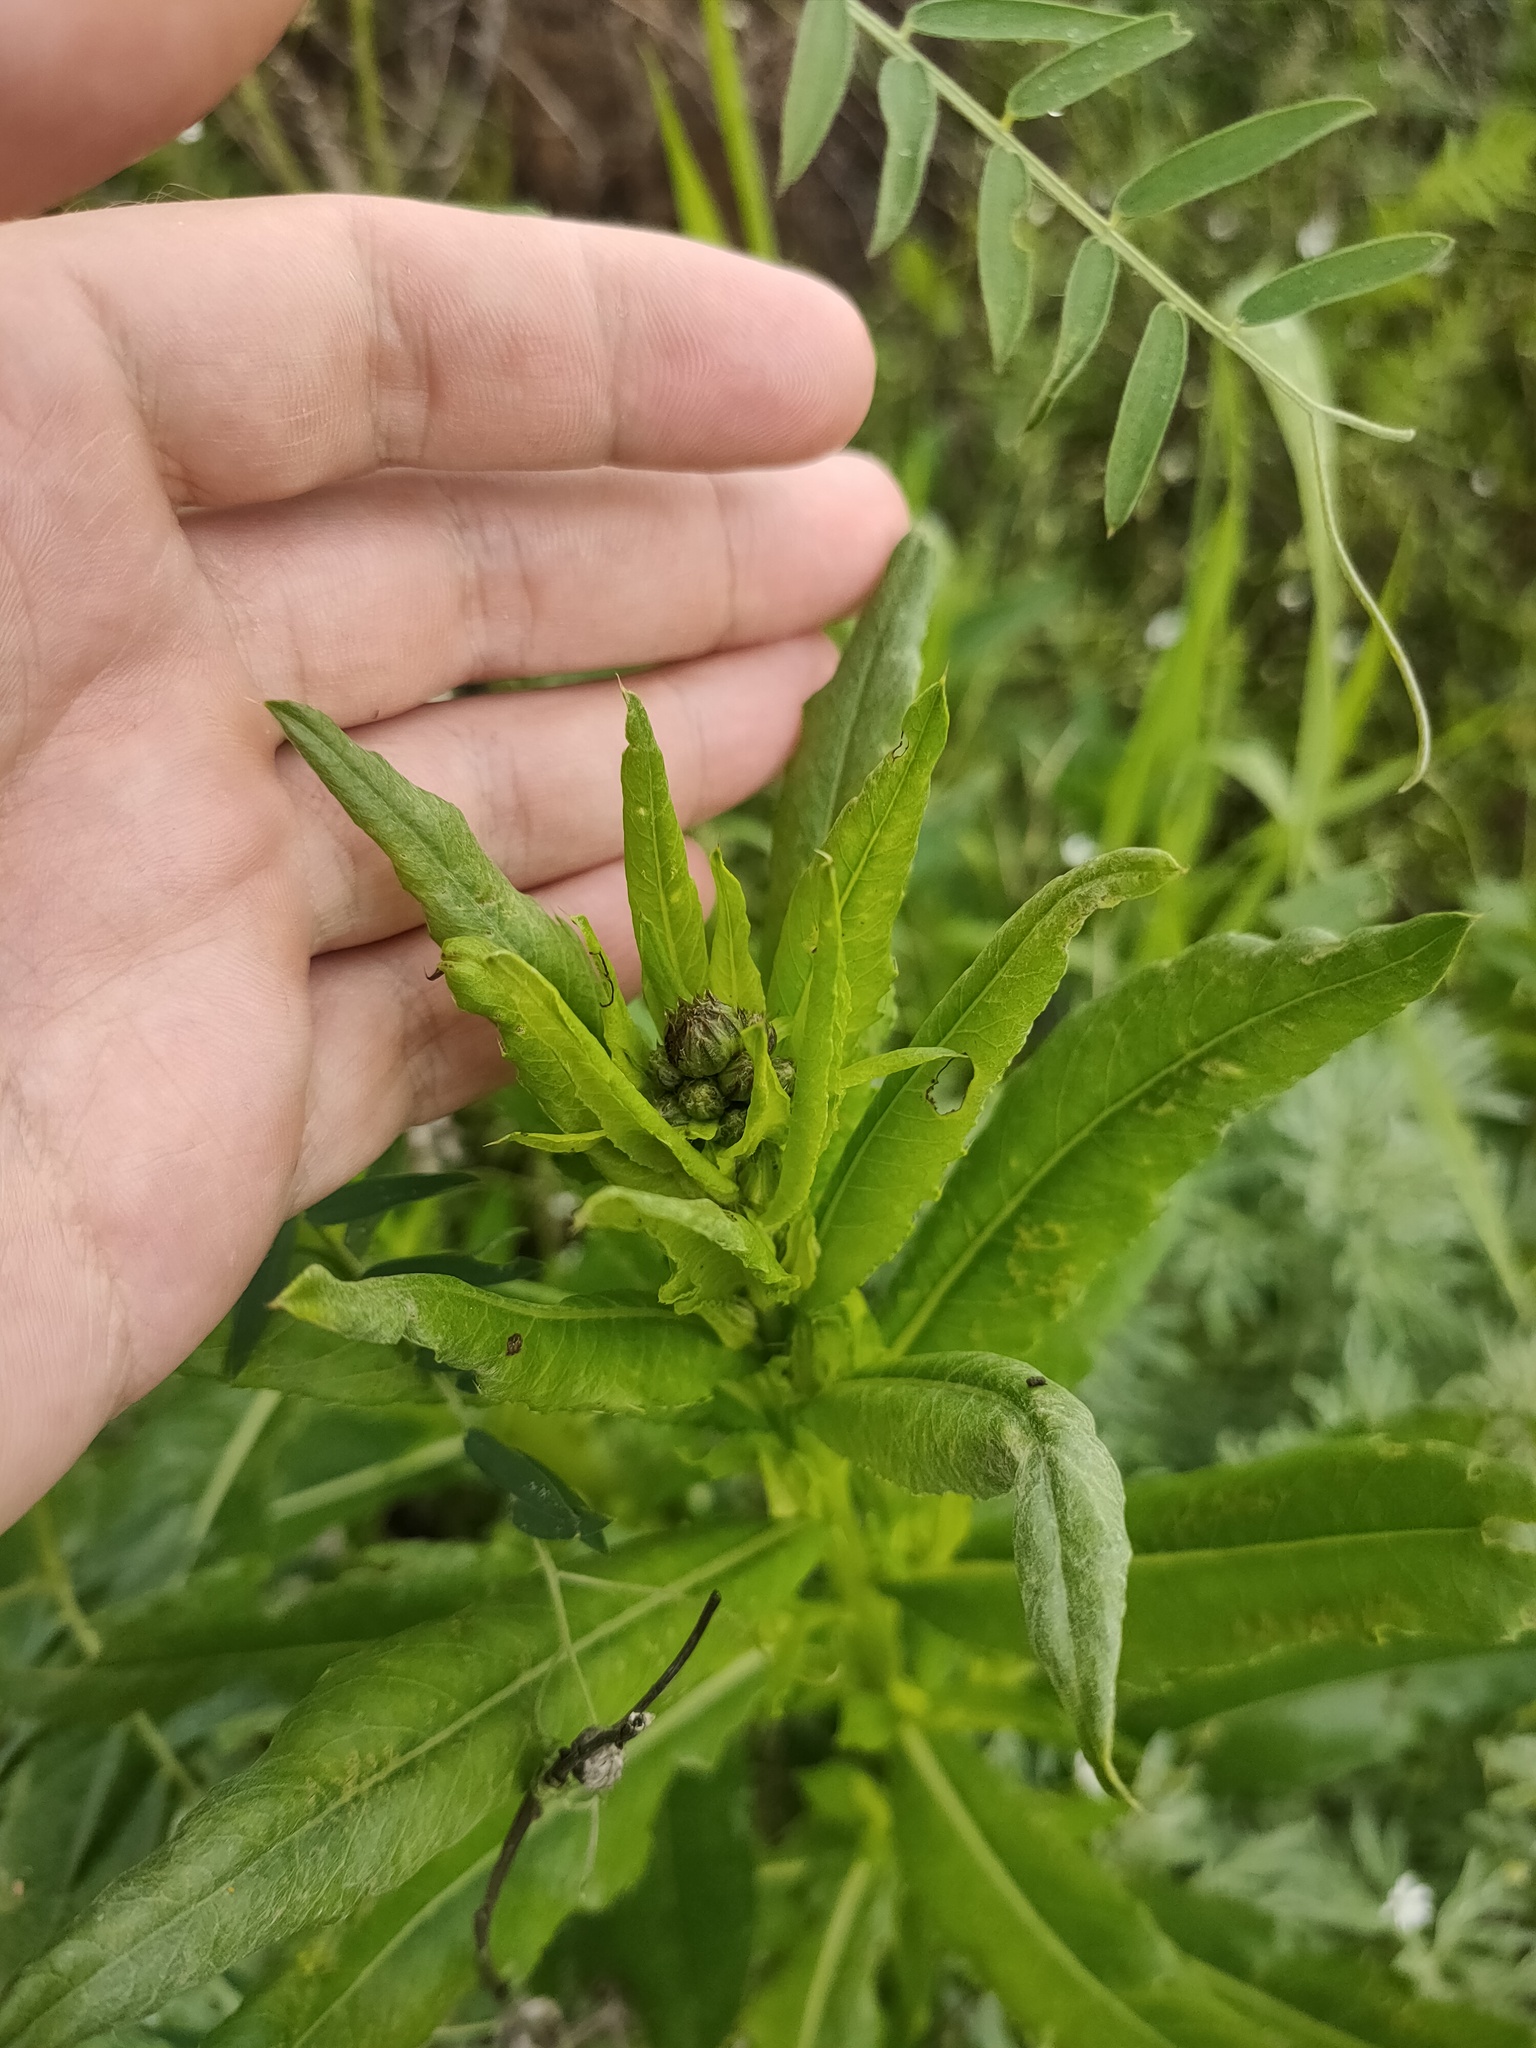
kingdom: Plantae
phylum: Tracheophyta
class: Magnoliopsida
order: Asterales
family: Asteraceae
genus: Cirsium
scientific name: Cirsium arvense
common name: Creeping thistle
